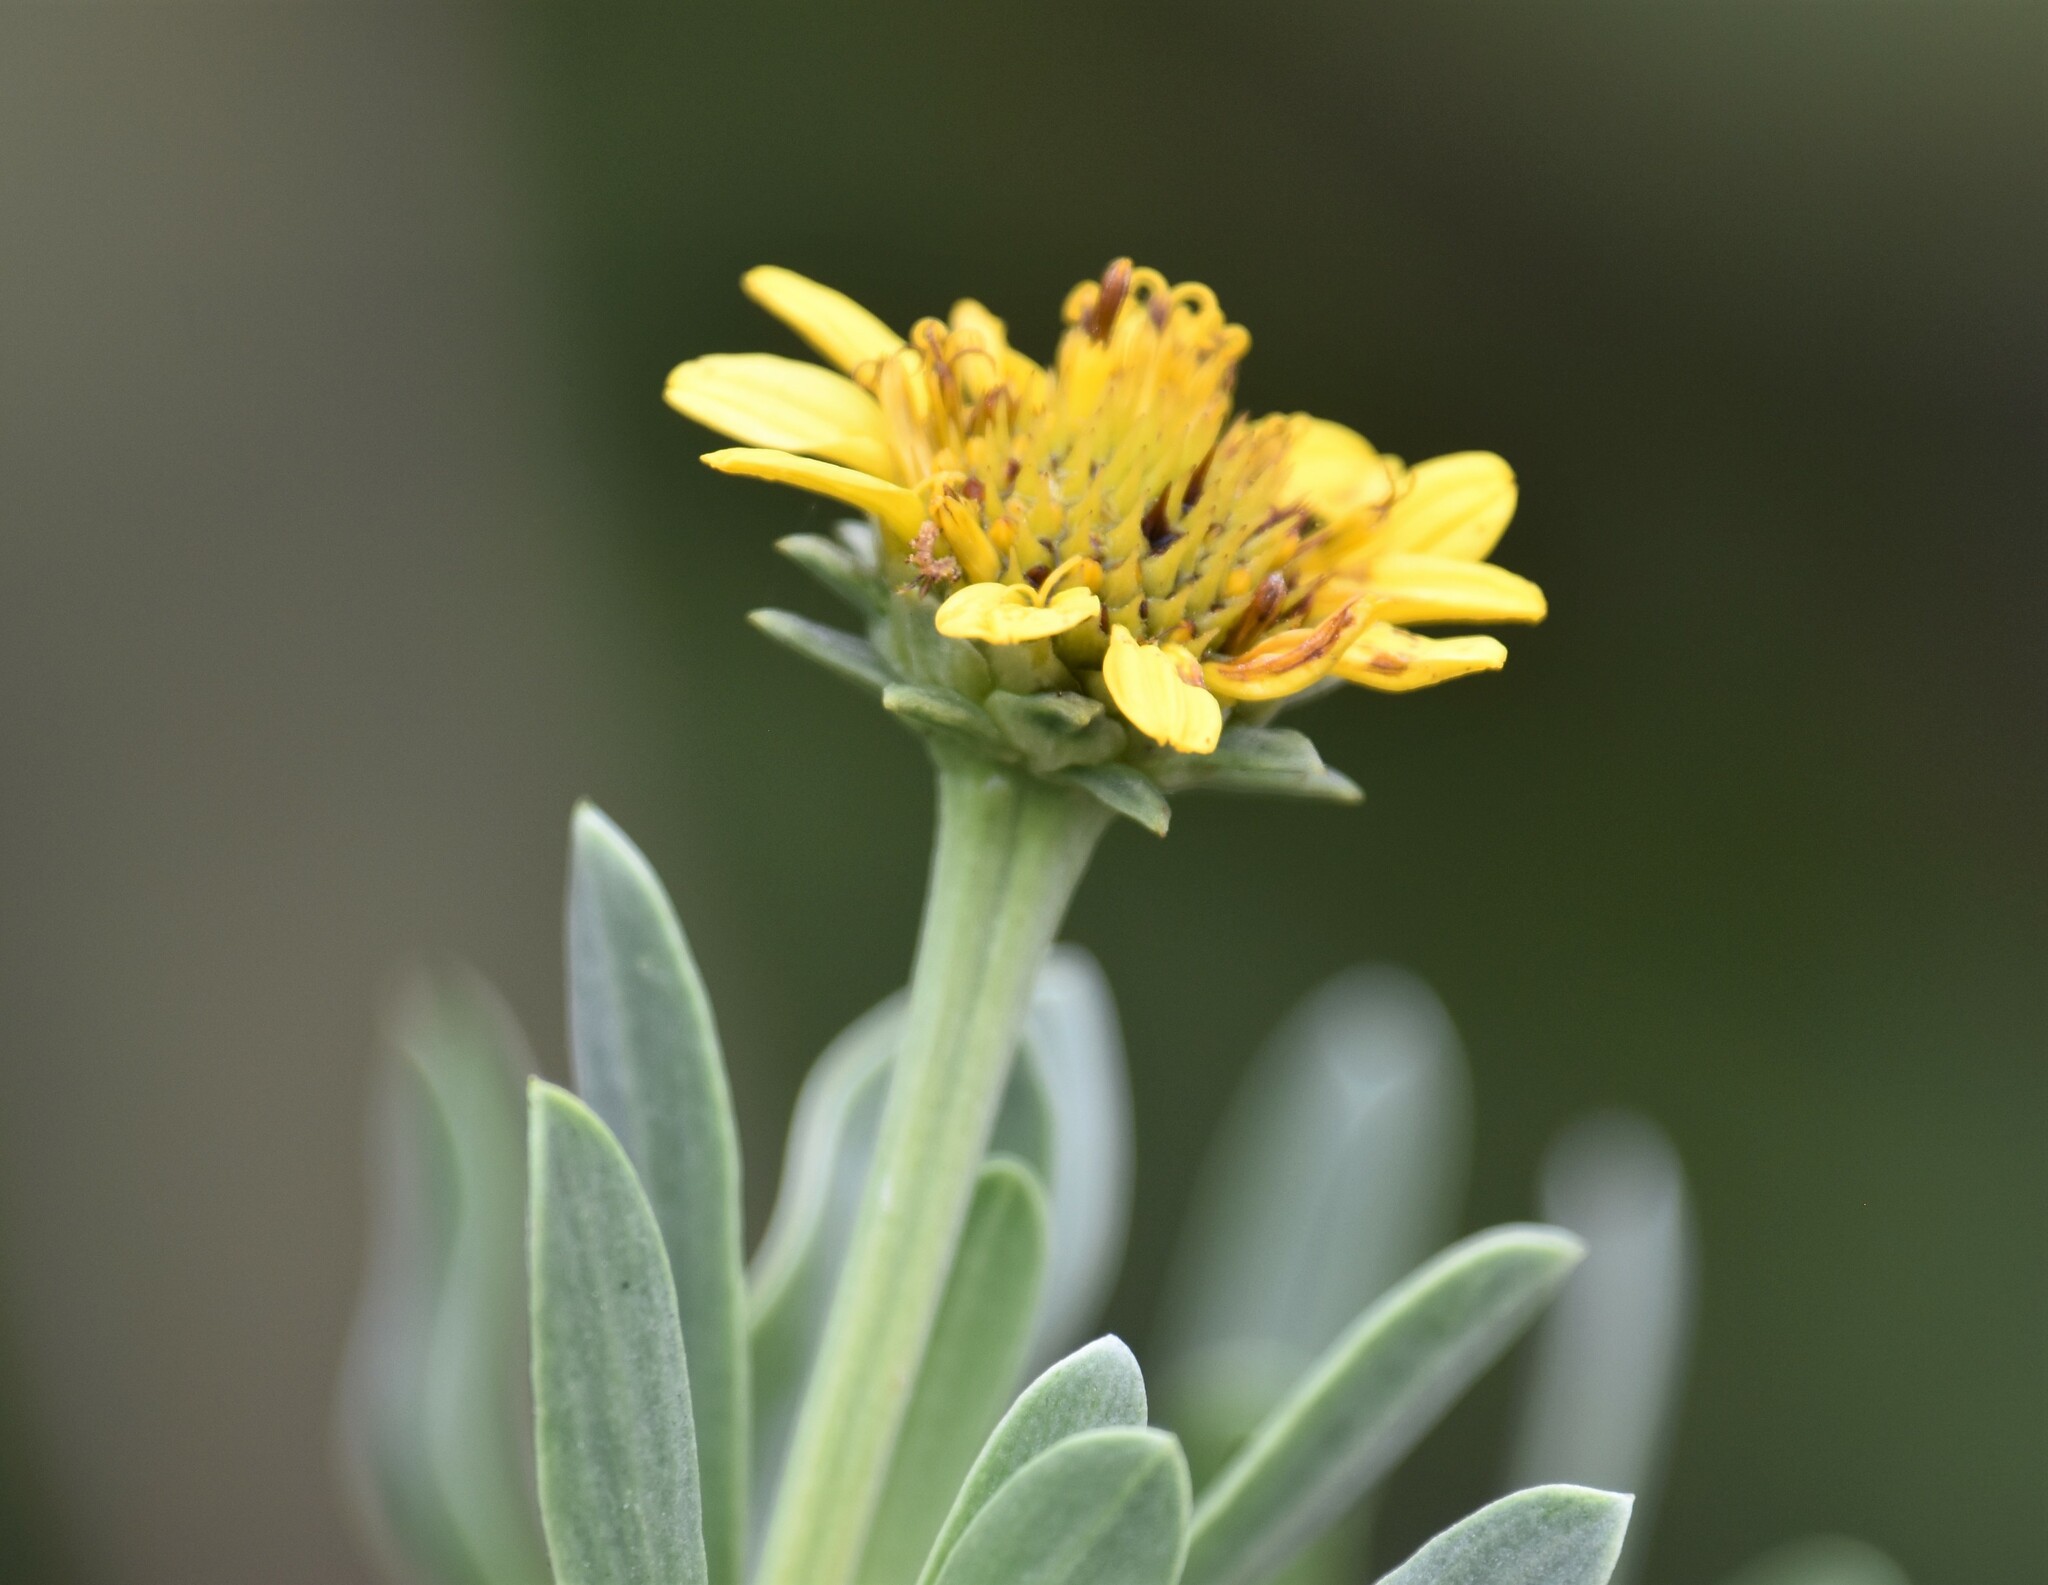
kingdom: Plantae
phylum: Tracheophyta
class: Magnoliopsida
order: Asterales
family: Asteraceae
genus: Borrichia
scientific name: Borrichia frutescens
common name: Sea oxeye
